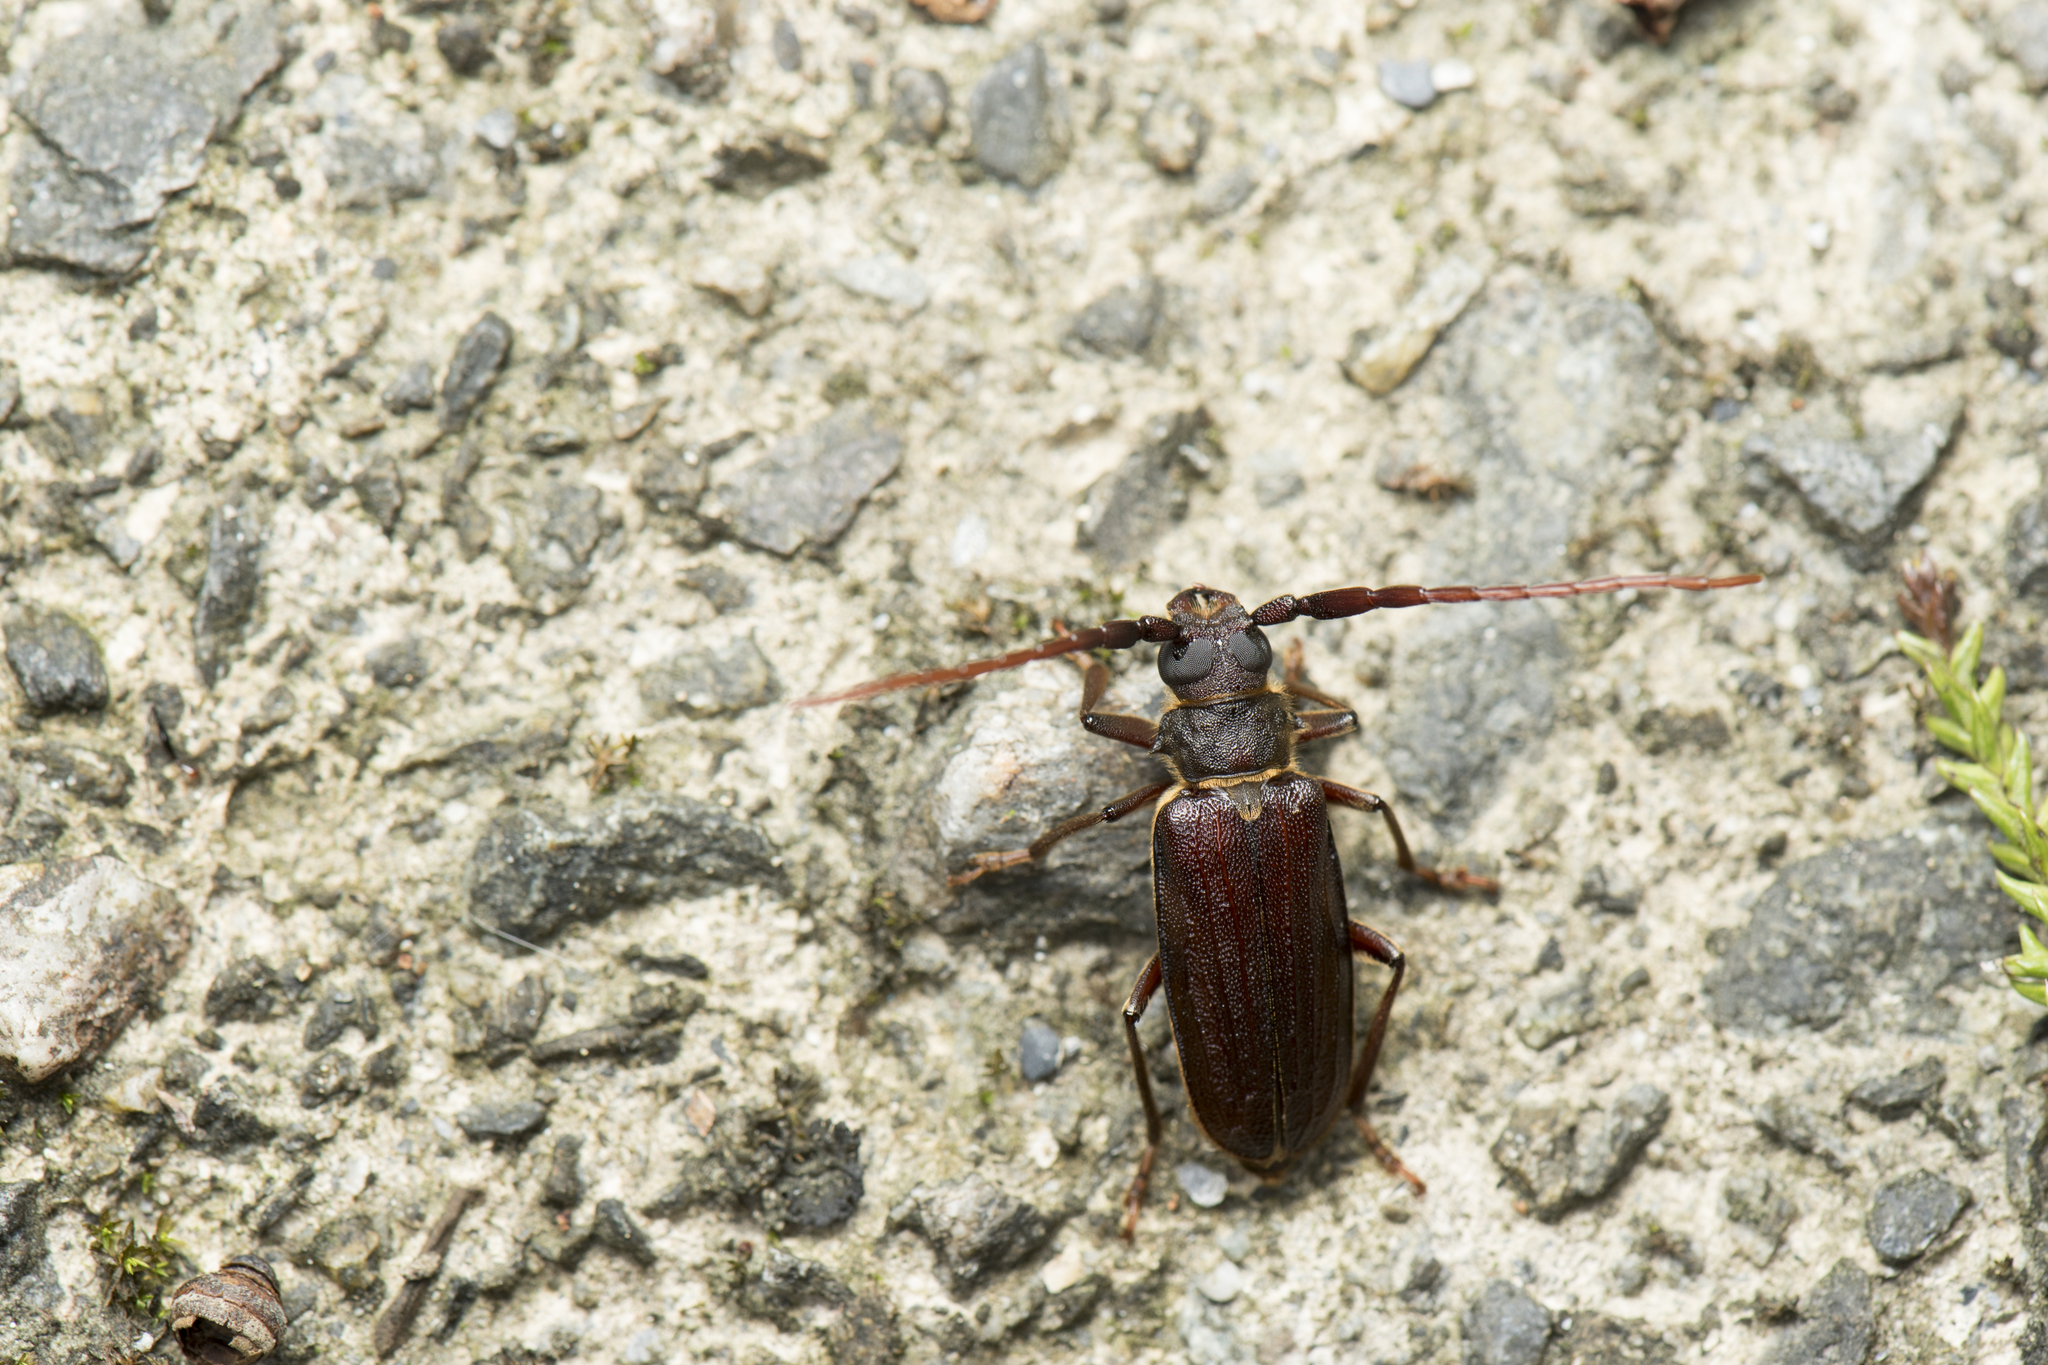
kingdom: Animalia
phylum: Arthropoda
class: Insecta
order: Coleoptera
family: Cerambycidae
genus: Sarmydus
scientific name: Sarmydus lii
